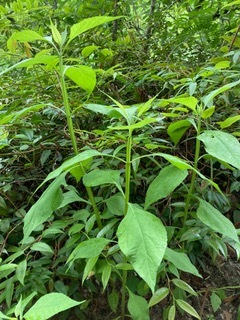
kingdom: Plantae
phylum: Tracheophyta
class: Magnoliopsida
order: Asterales
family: Asteraceae
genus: Verbesina
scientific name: Verbesina occidentalis
